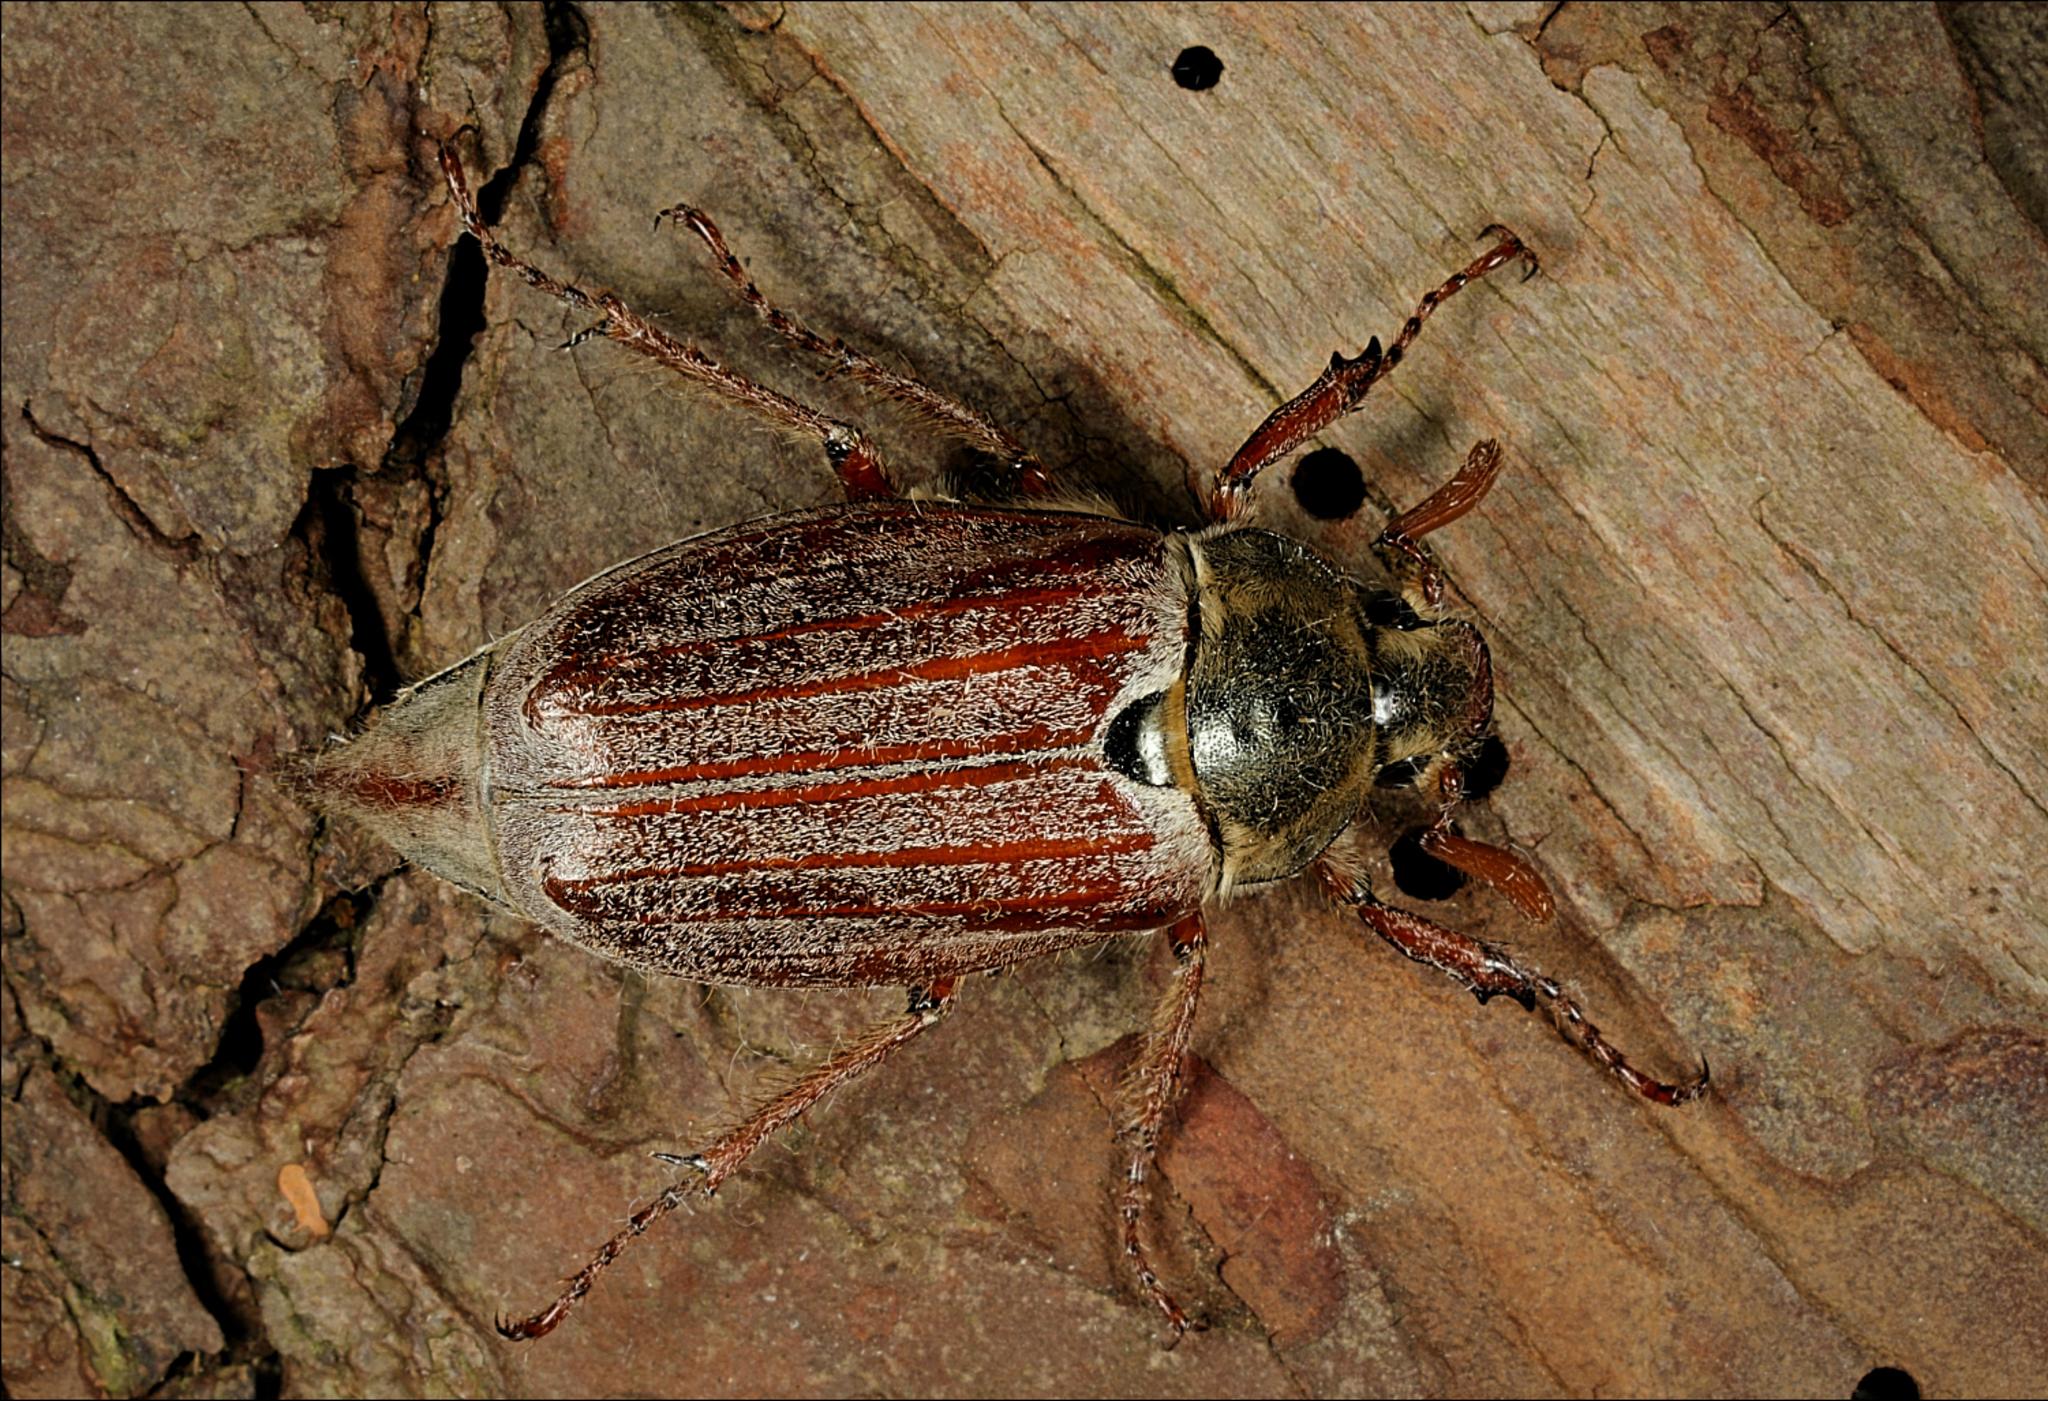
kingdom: Animalia
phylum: Arthropoda
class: Insecta
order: Coleoptera
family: Scarabaeidae
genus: Melolontha
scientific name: Melolontha melolontha
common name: Cockchafer maybeetle
